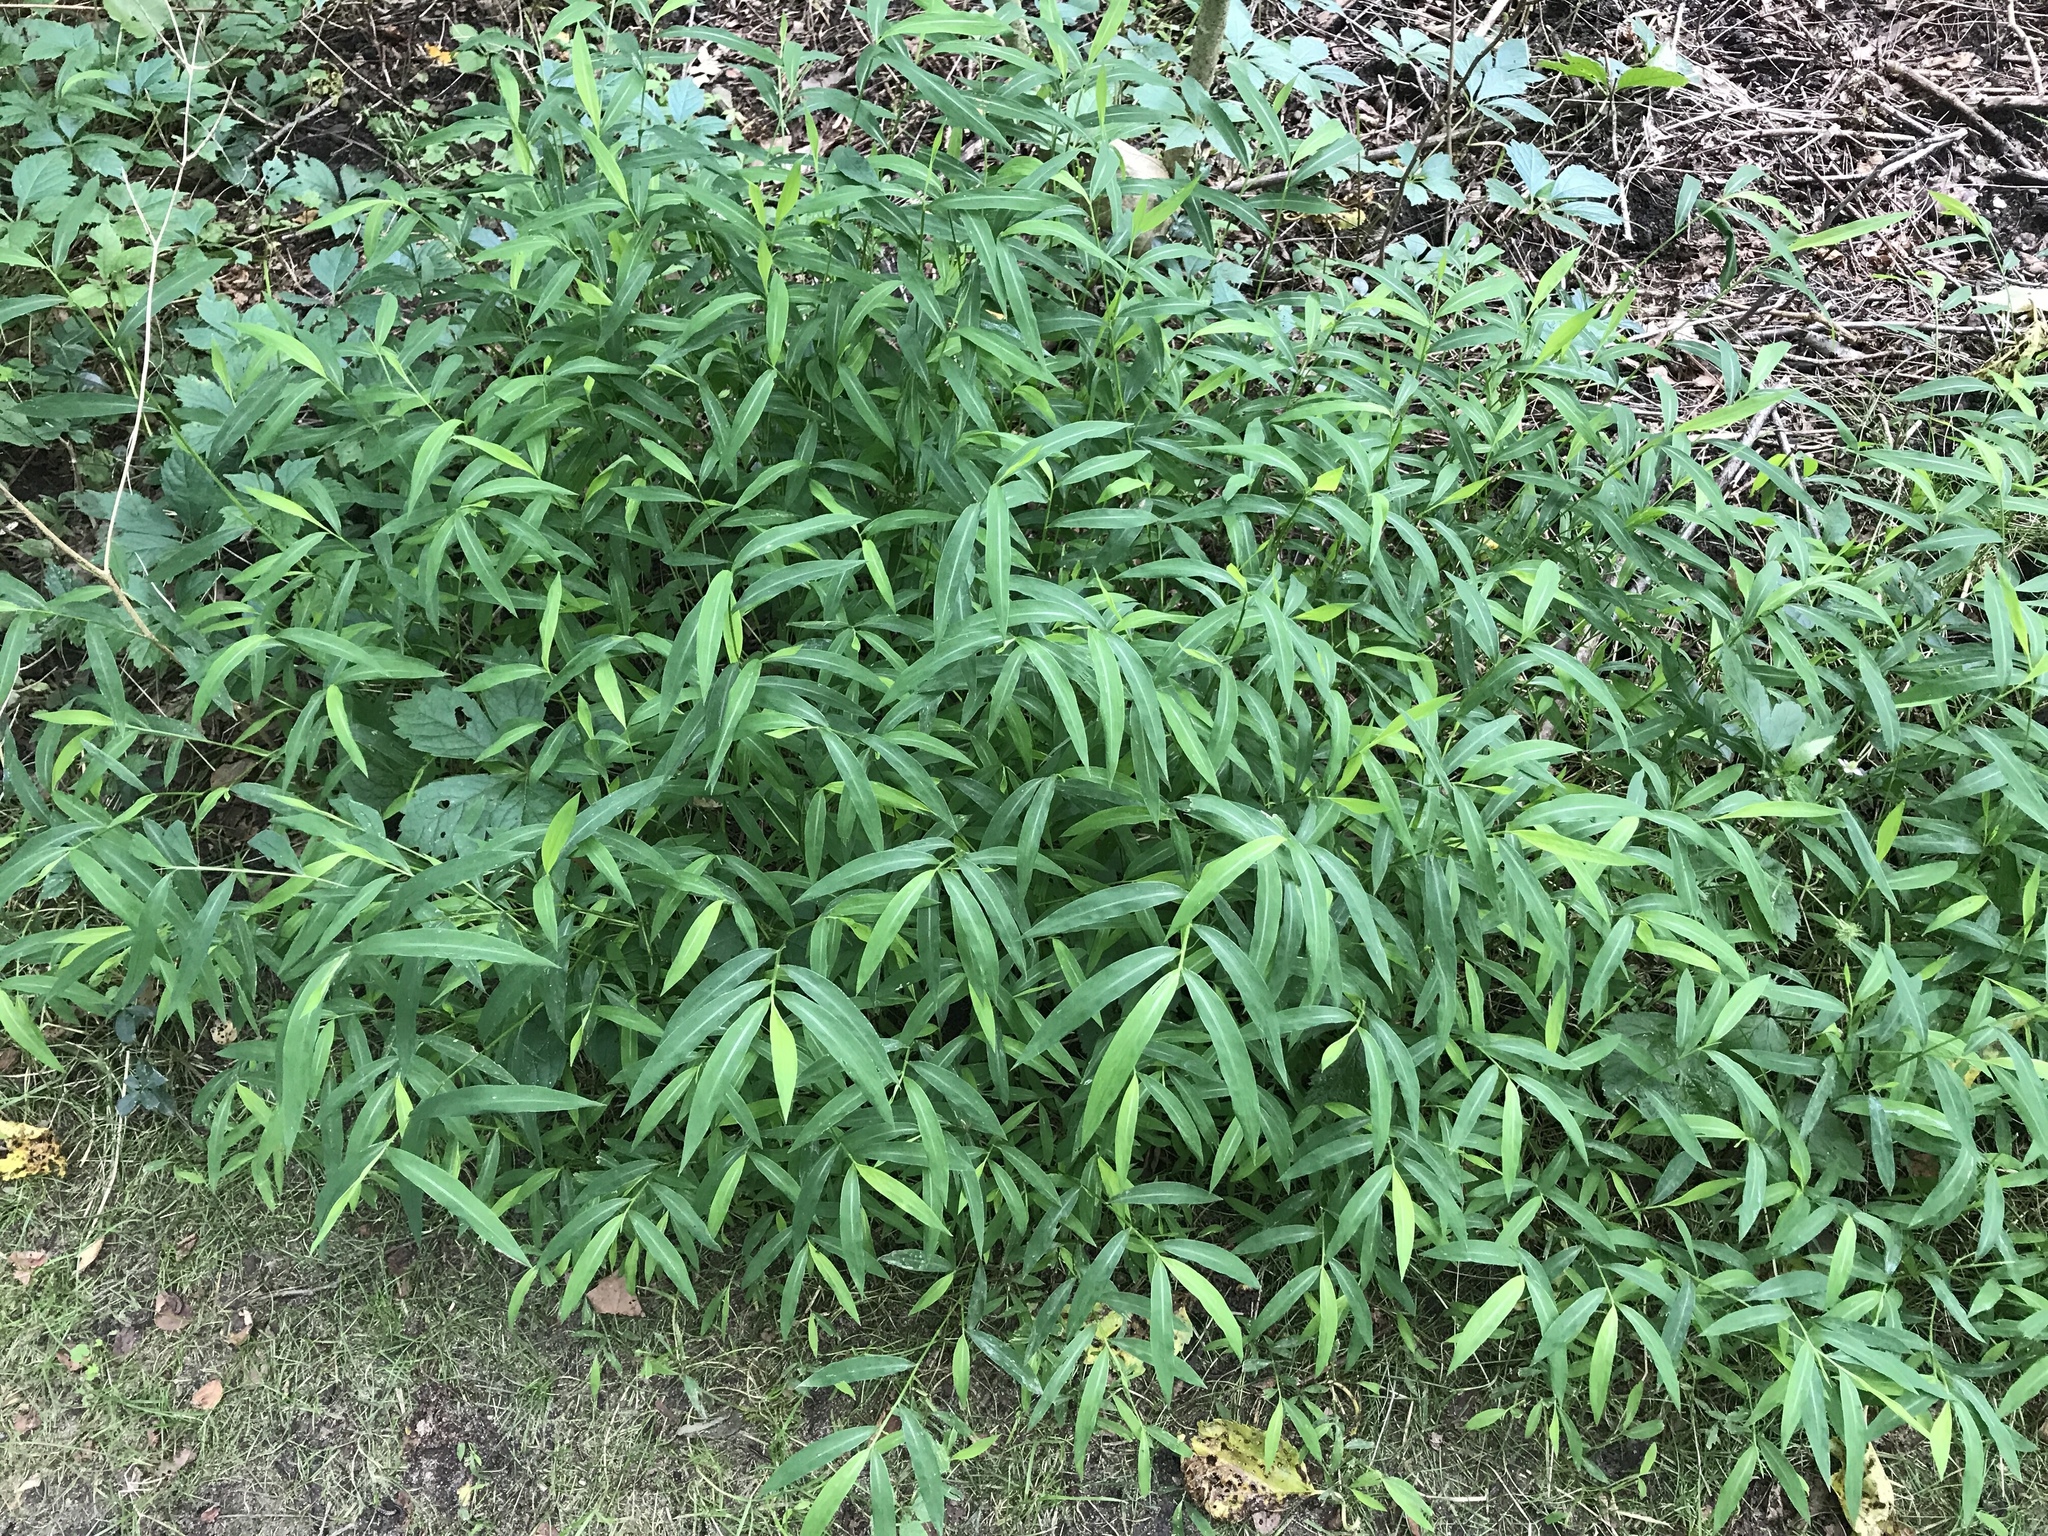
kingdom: Plantae
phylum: Tracheophyta
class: Liliopsida
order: Poales
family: Poaceae
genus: Microstegium
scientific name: Microstegium vimineum
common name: Japanese stiltgrass
